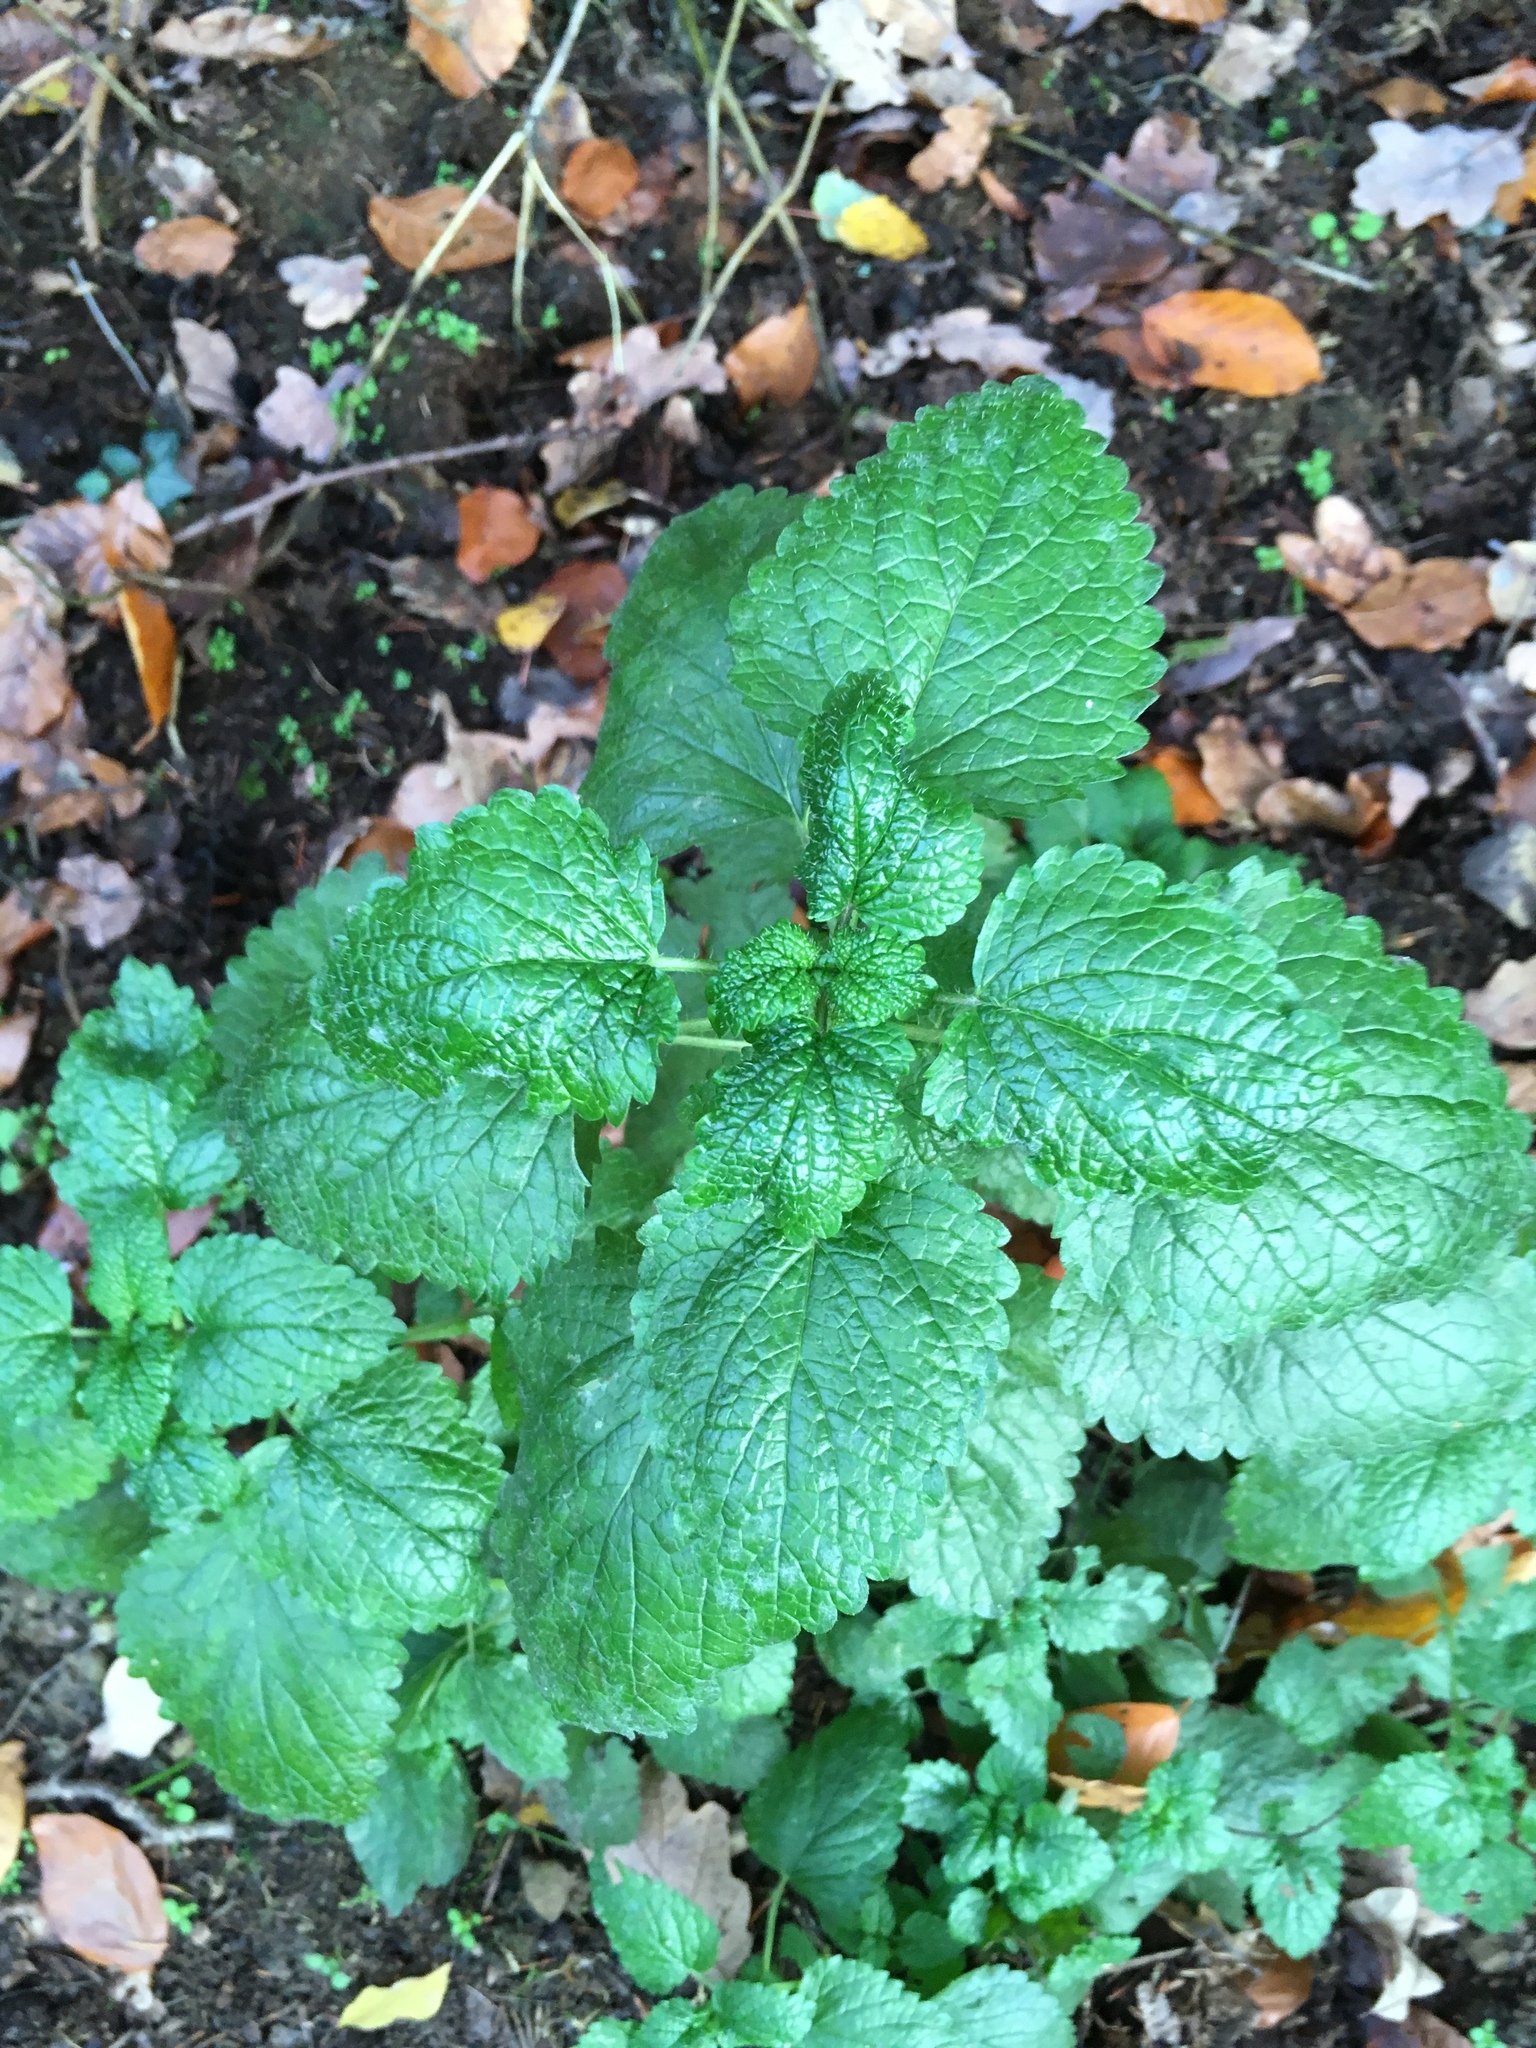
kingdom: Plantae
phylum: Tracheophyta
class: Magnoliopsida
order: Lamiales
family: Lamiaceae
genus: Melissa
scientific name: Melissa officinalis
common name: Balm
